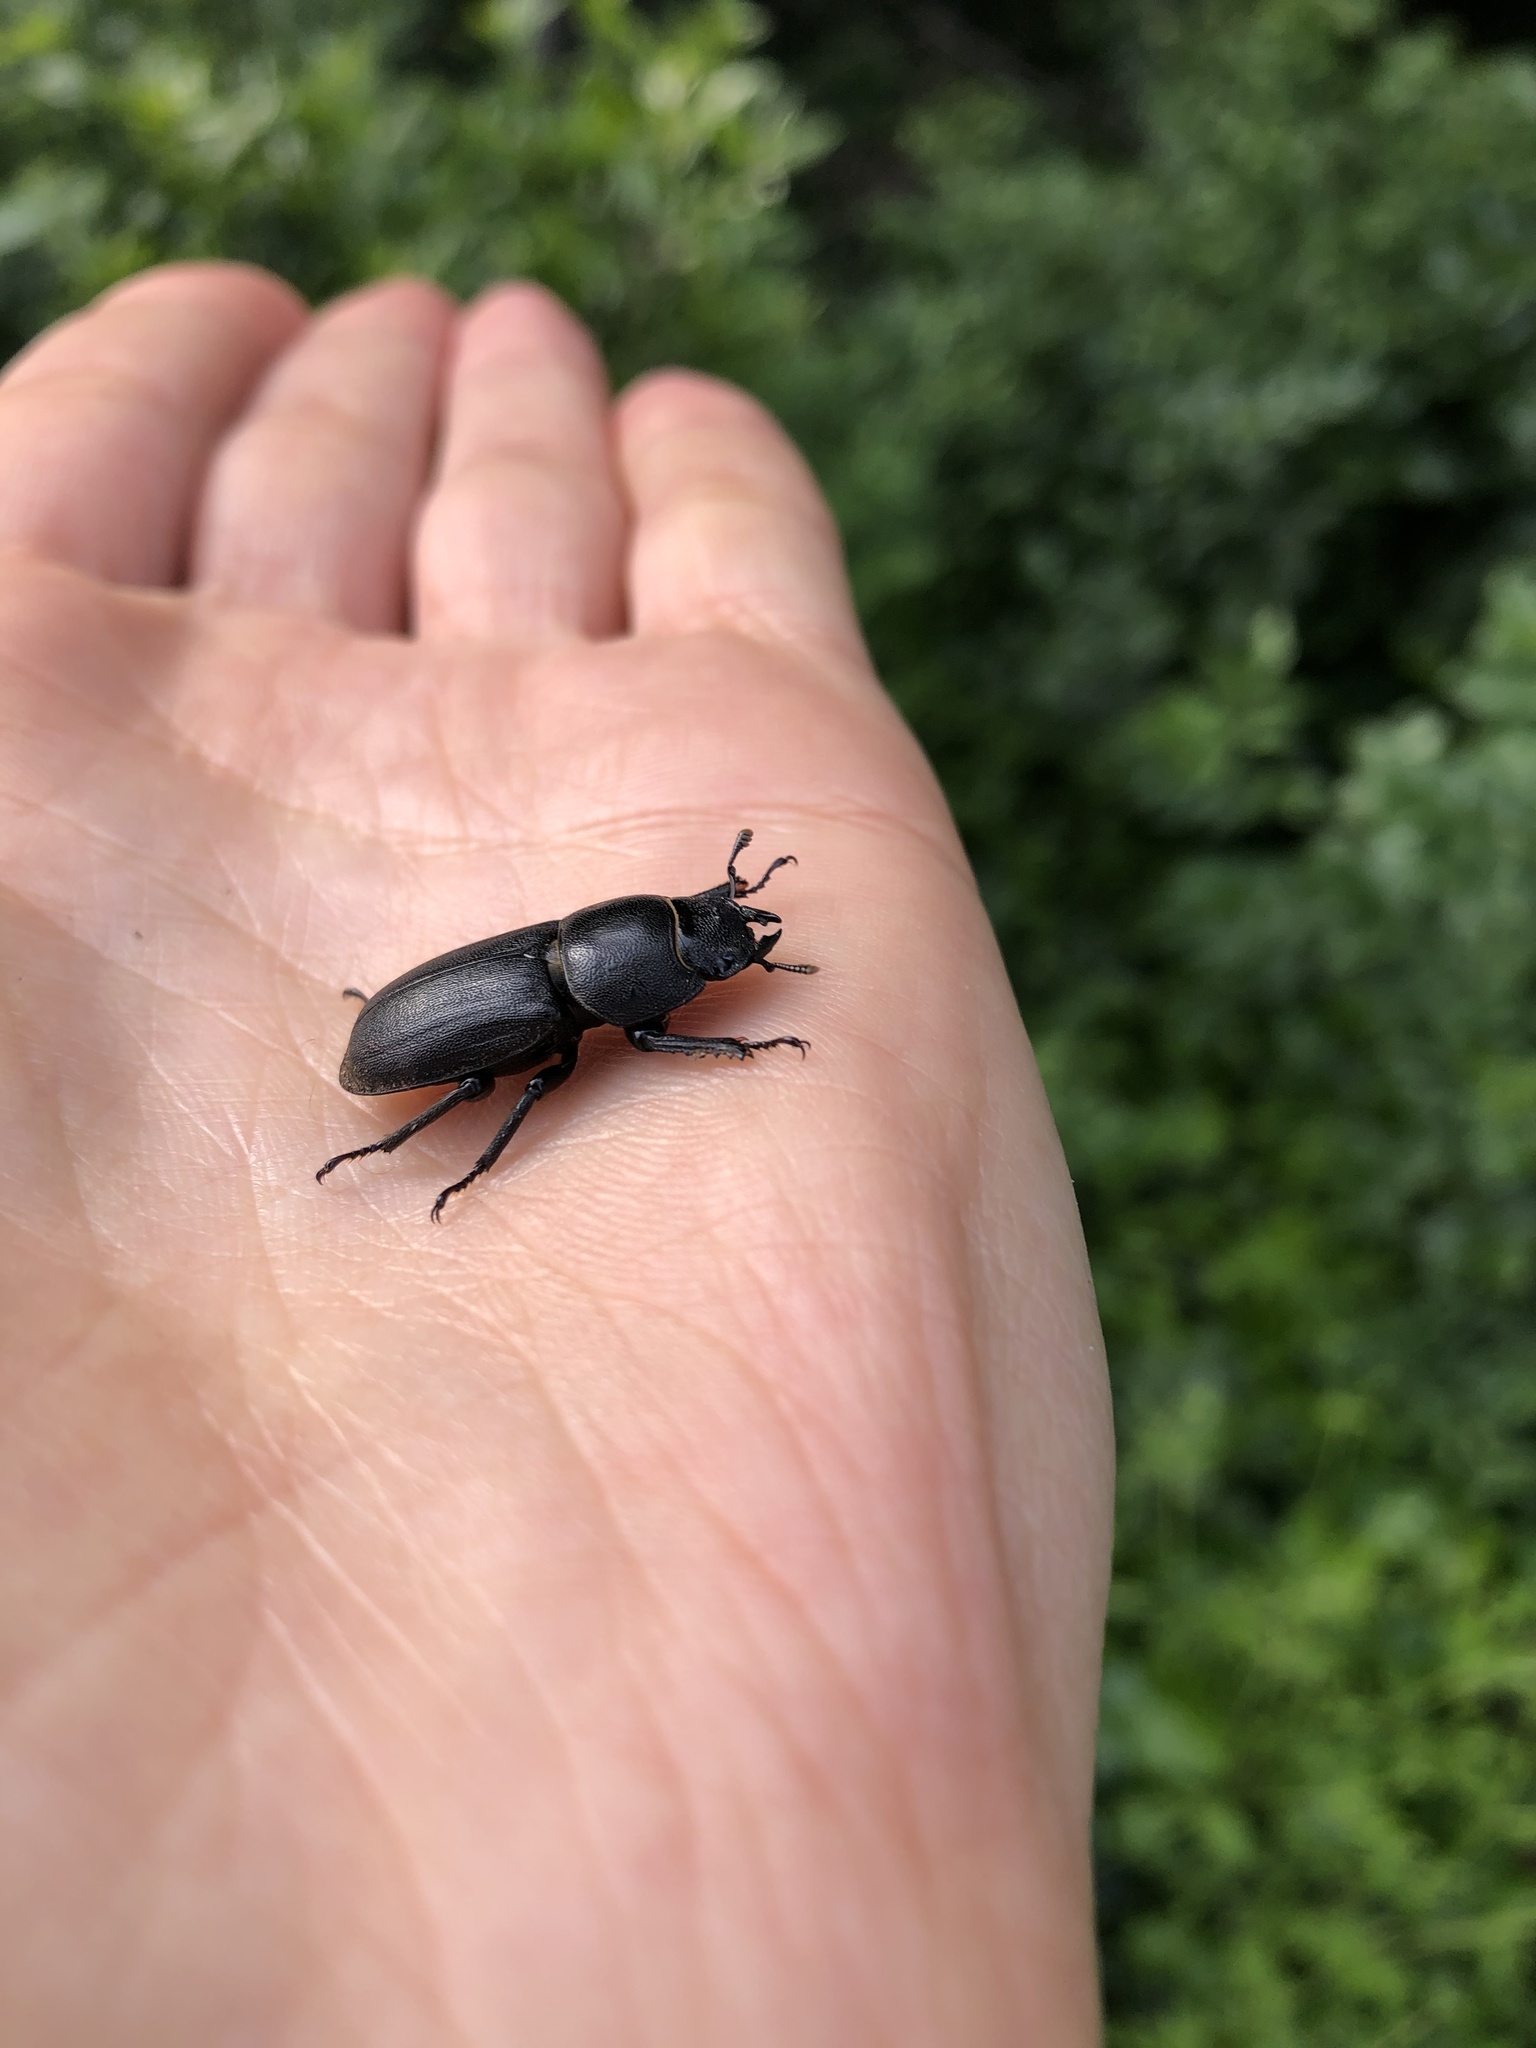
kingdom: Animalia
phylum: Arthropoda
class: Insecta
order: Coleoptera
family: Lucanidae
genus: Dorcus
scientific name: Dorcus parallelipipedus
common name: Lesser stag beetle
